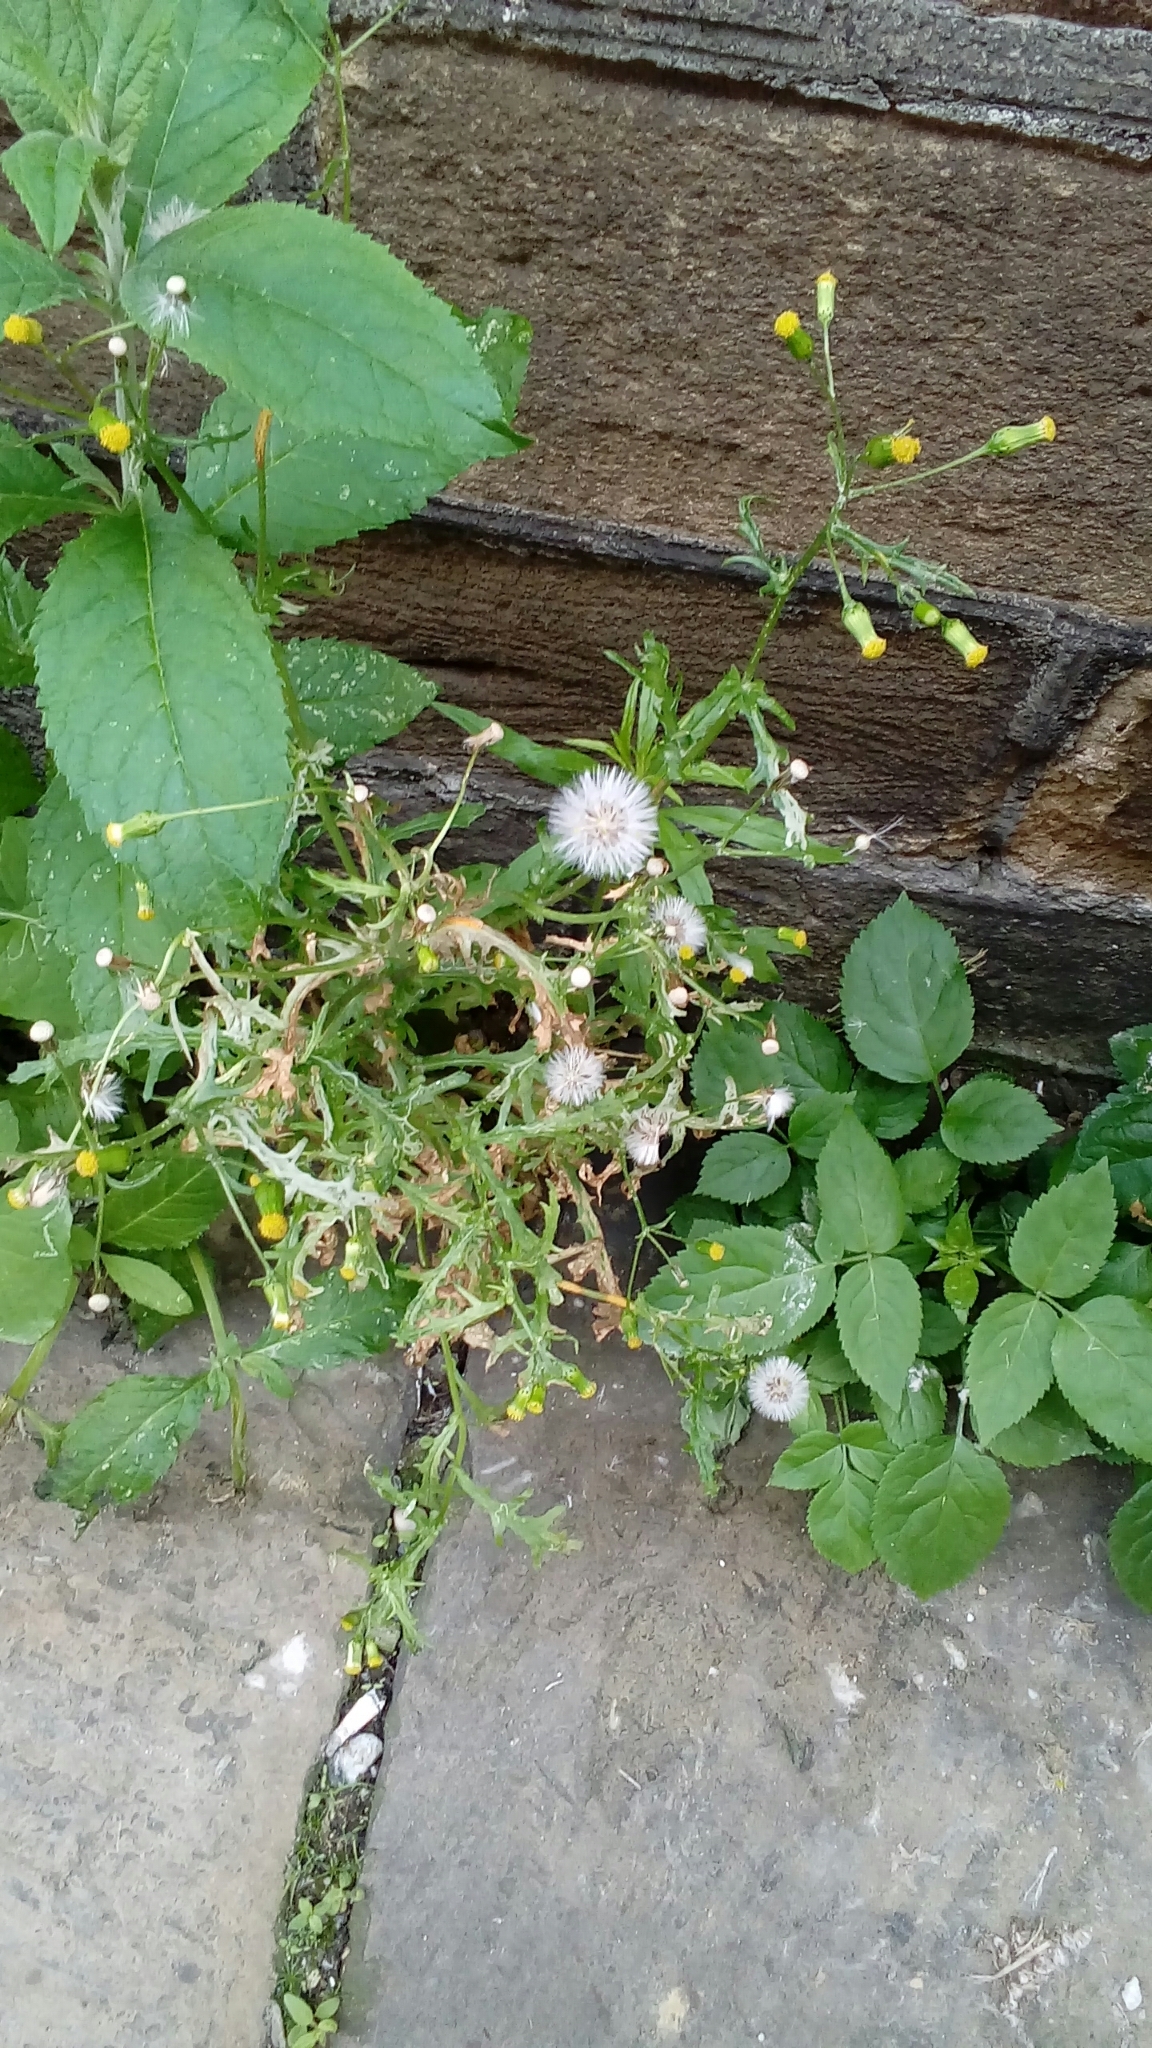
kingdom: Plantae
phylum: Tracheophyta
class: Magnoliopsida
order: Asterales
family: Asteraceae
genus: Senecio
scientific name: Senecio vulgaris
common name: Old-man-in-the-spring
